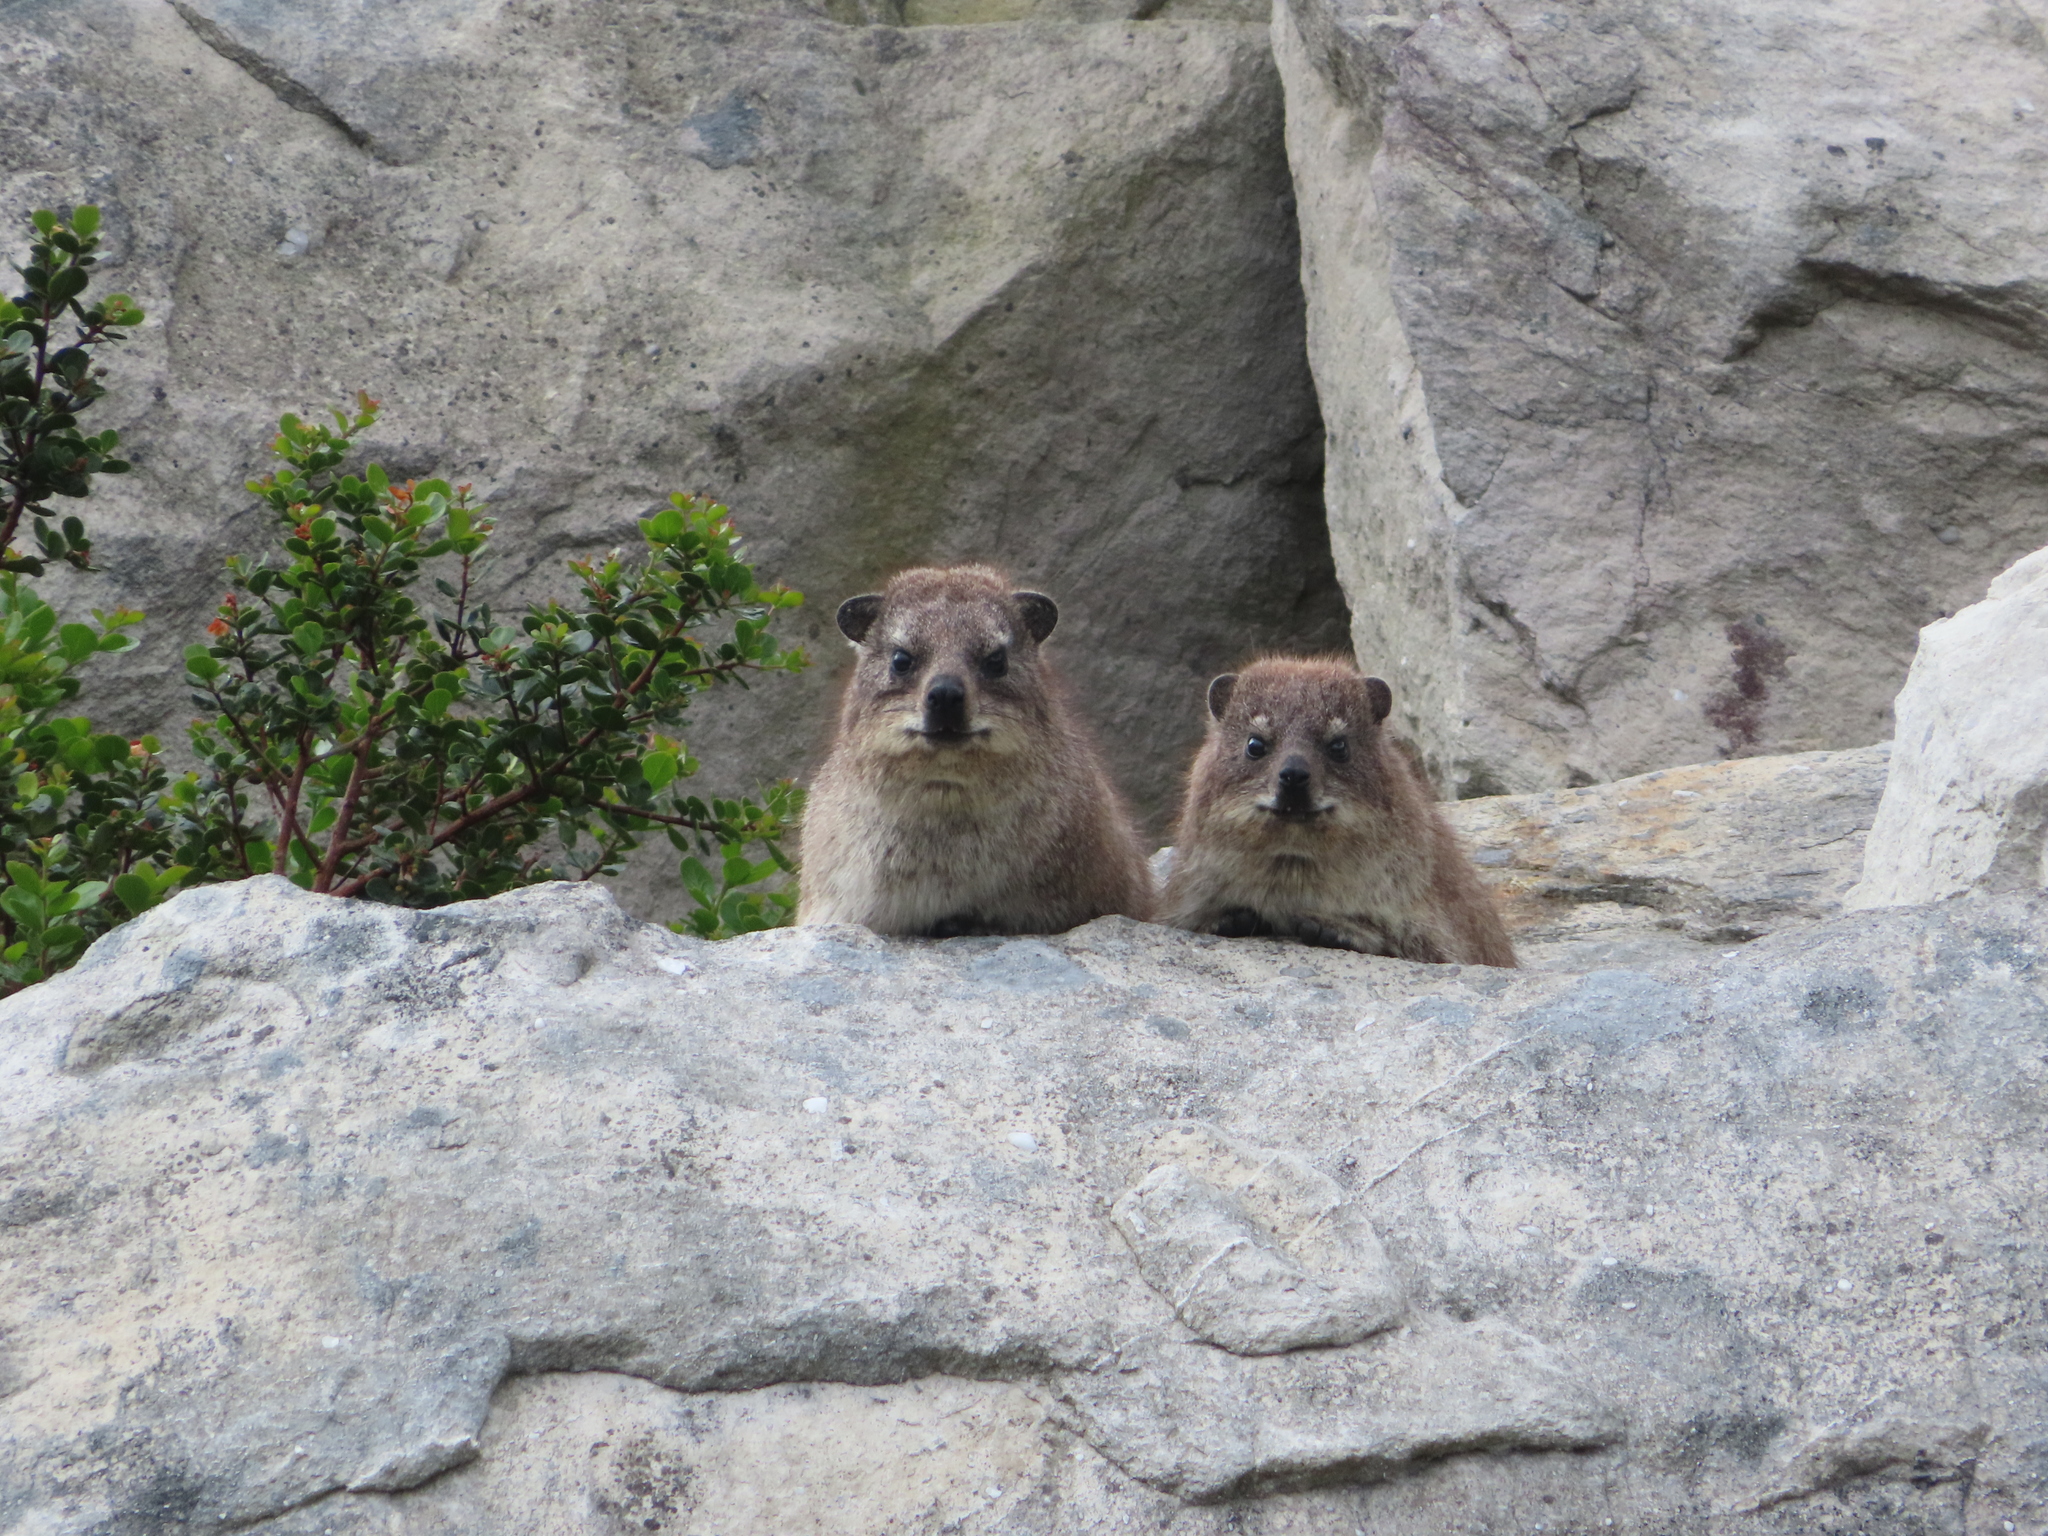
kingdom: Animalia
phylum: Chordata
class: Mammalia
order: Hyracoidea
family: Procaviidae
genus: Procavia
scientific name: Procavia capensis
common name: Rock hyrax
